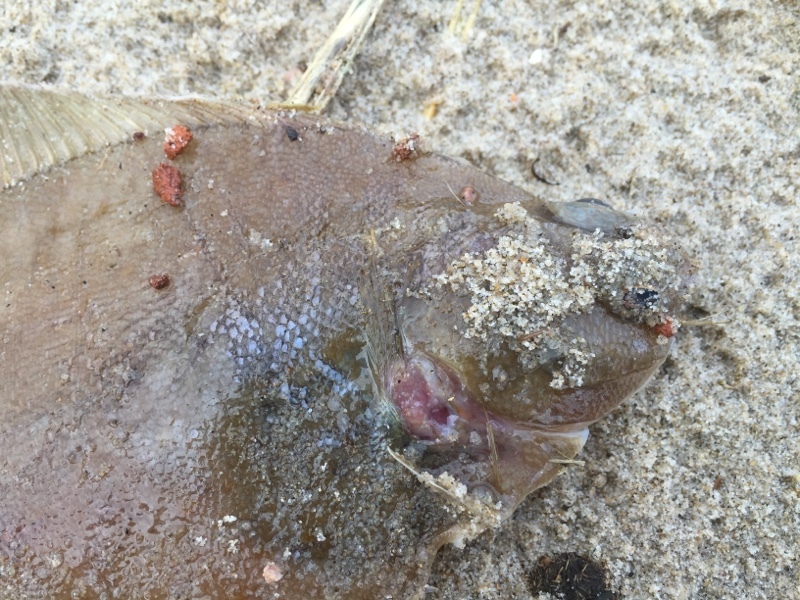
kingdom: Animalia
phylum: Chordata
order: Pleuronectiformes
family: Pleuronectidae
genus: Limanda
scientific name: Limanda limanda
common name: Dab
